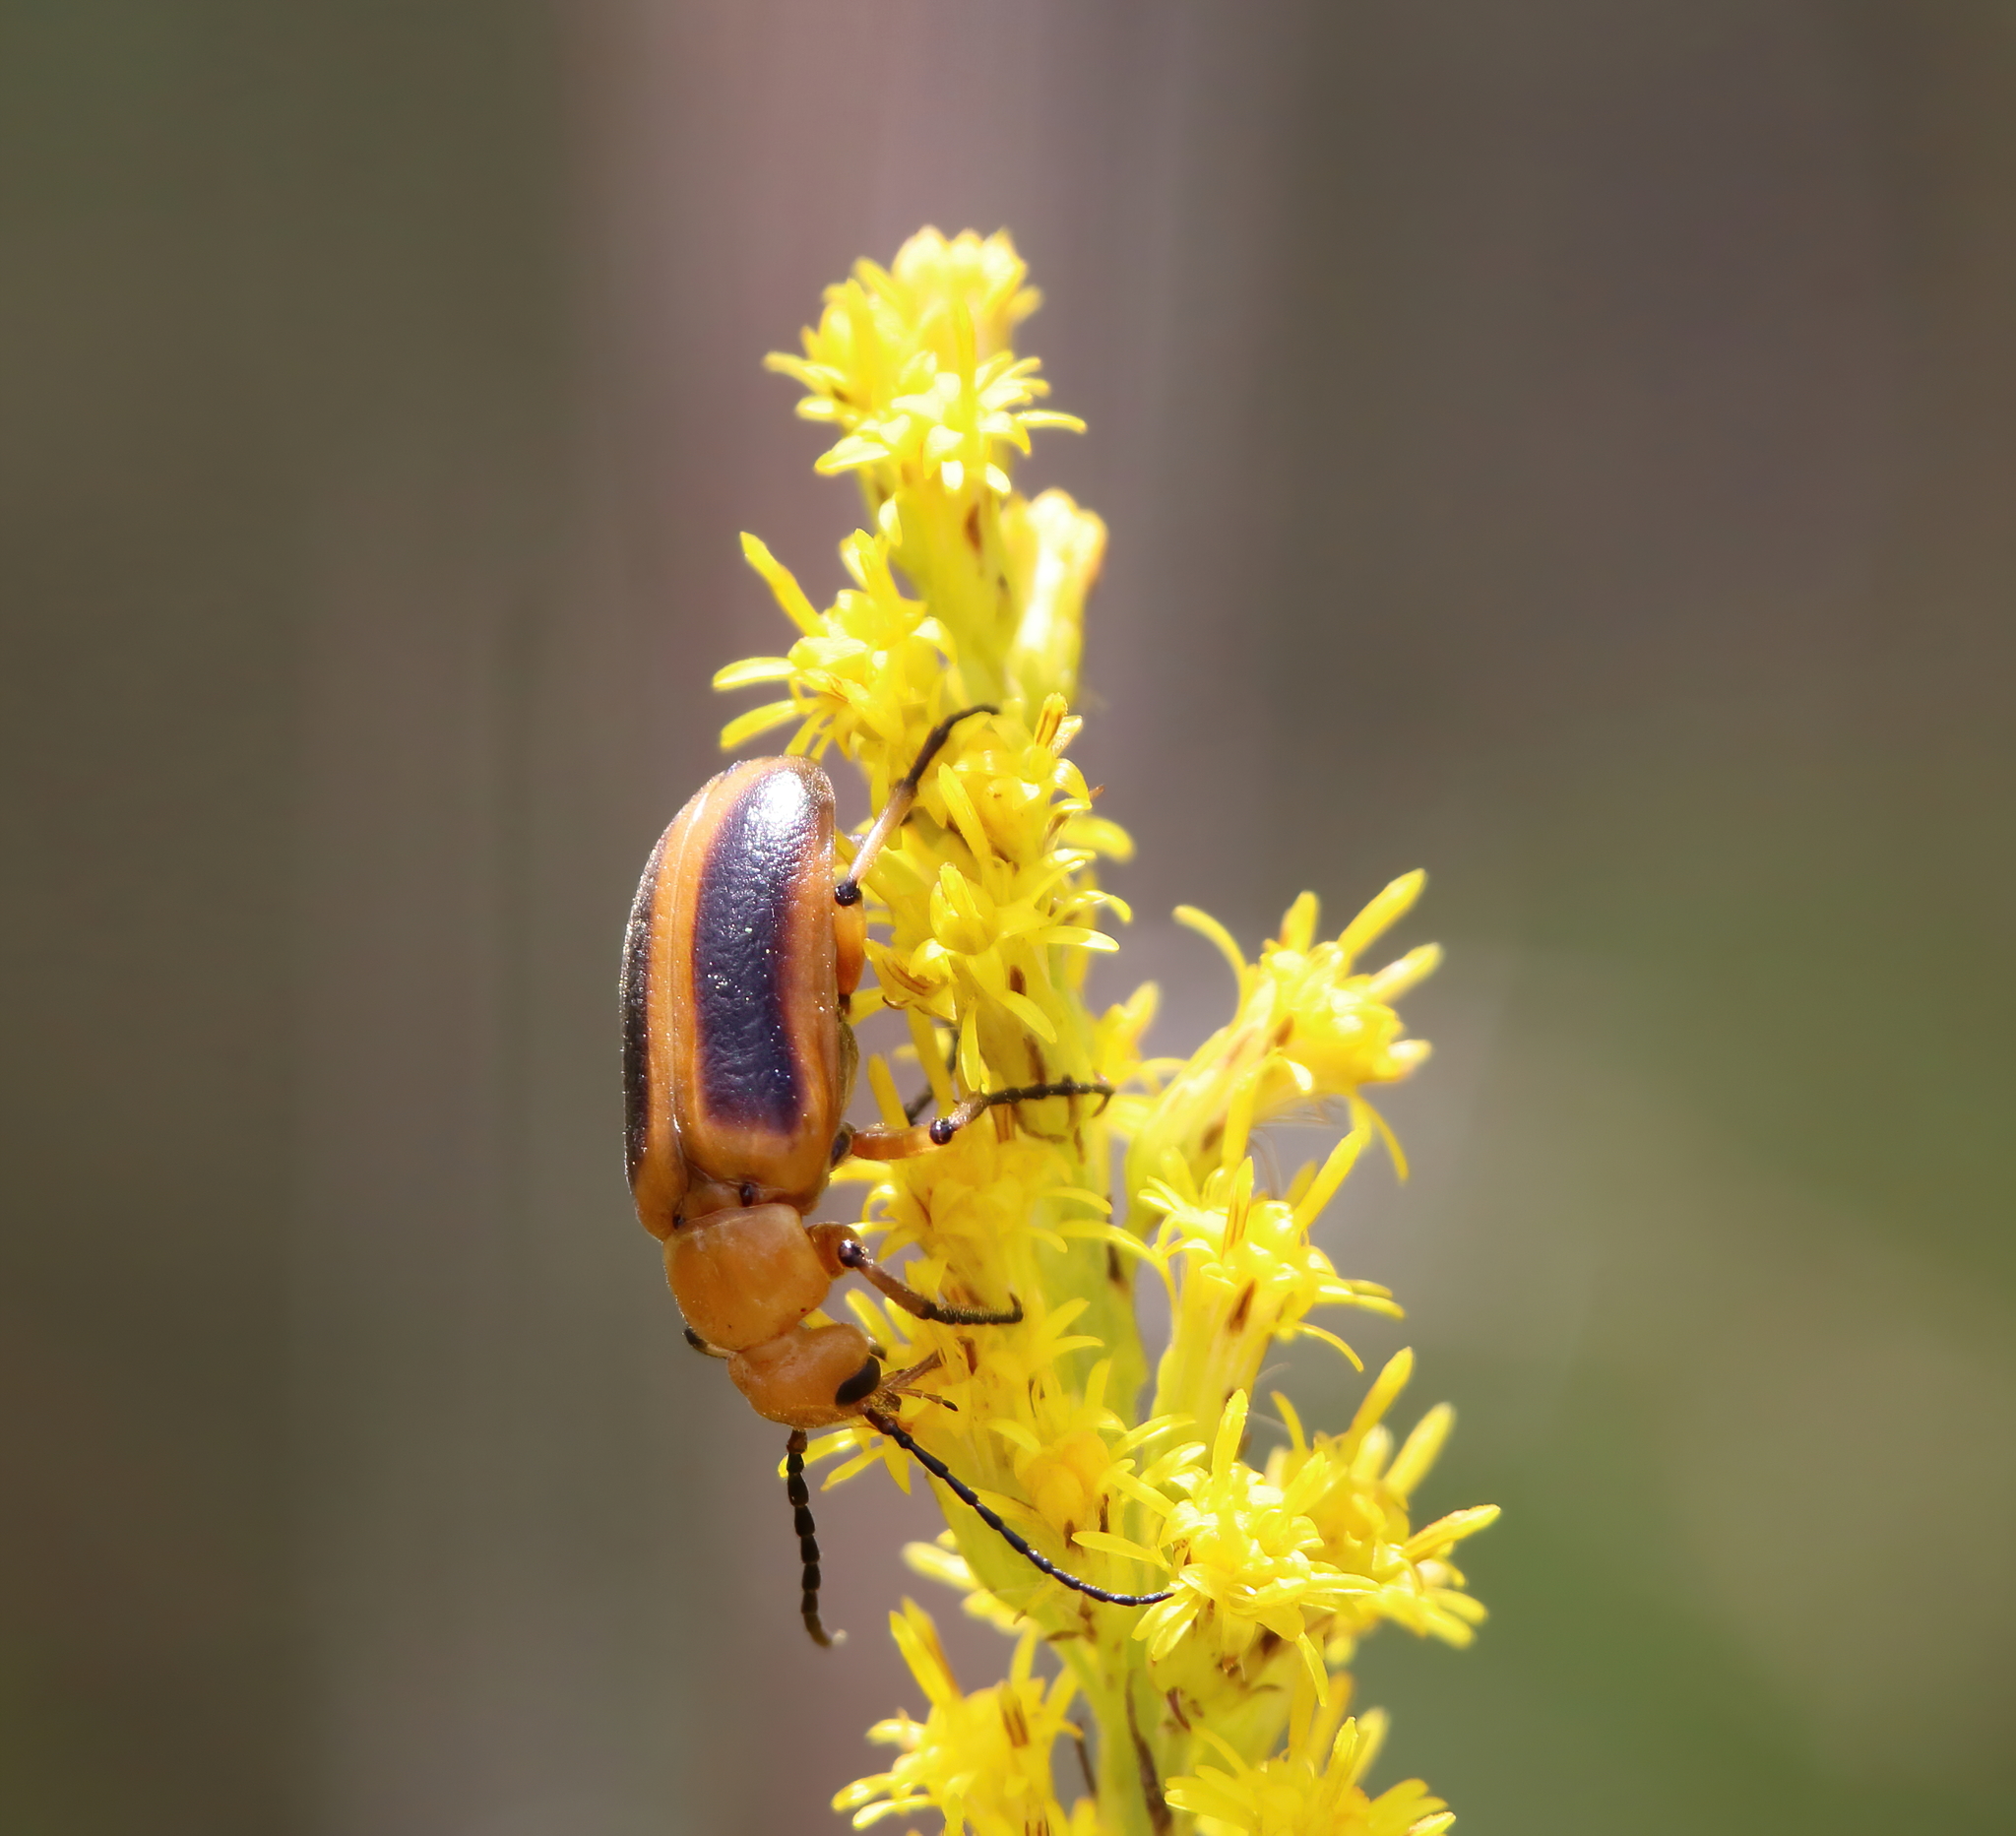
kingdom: Animalia
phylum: Arthropoda
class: Insecta
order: Coleoptera
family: Meloidae
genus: Zonitis
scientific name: Zonitis vittigera
